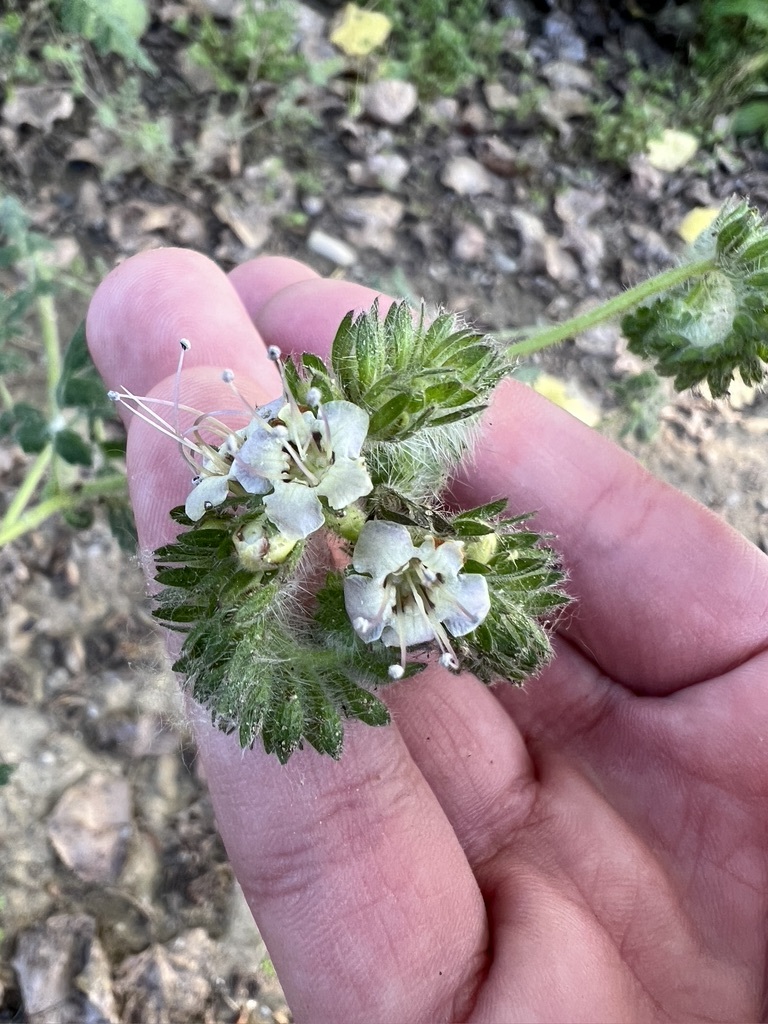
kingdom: Plantae
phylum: Tracheophyta
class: Magnoliopsida
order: Boraginales
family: Hydrophyllaceae
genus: Phacelia
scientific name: Phacelia ramosissima
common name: Branching phacelia
